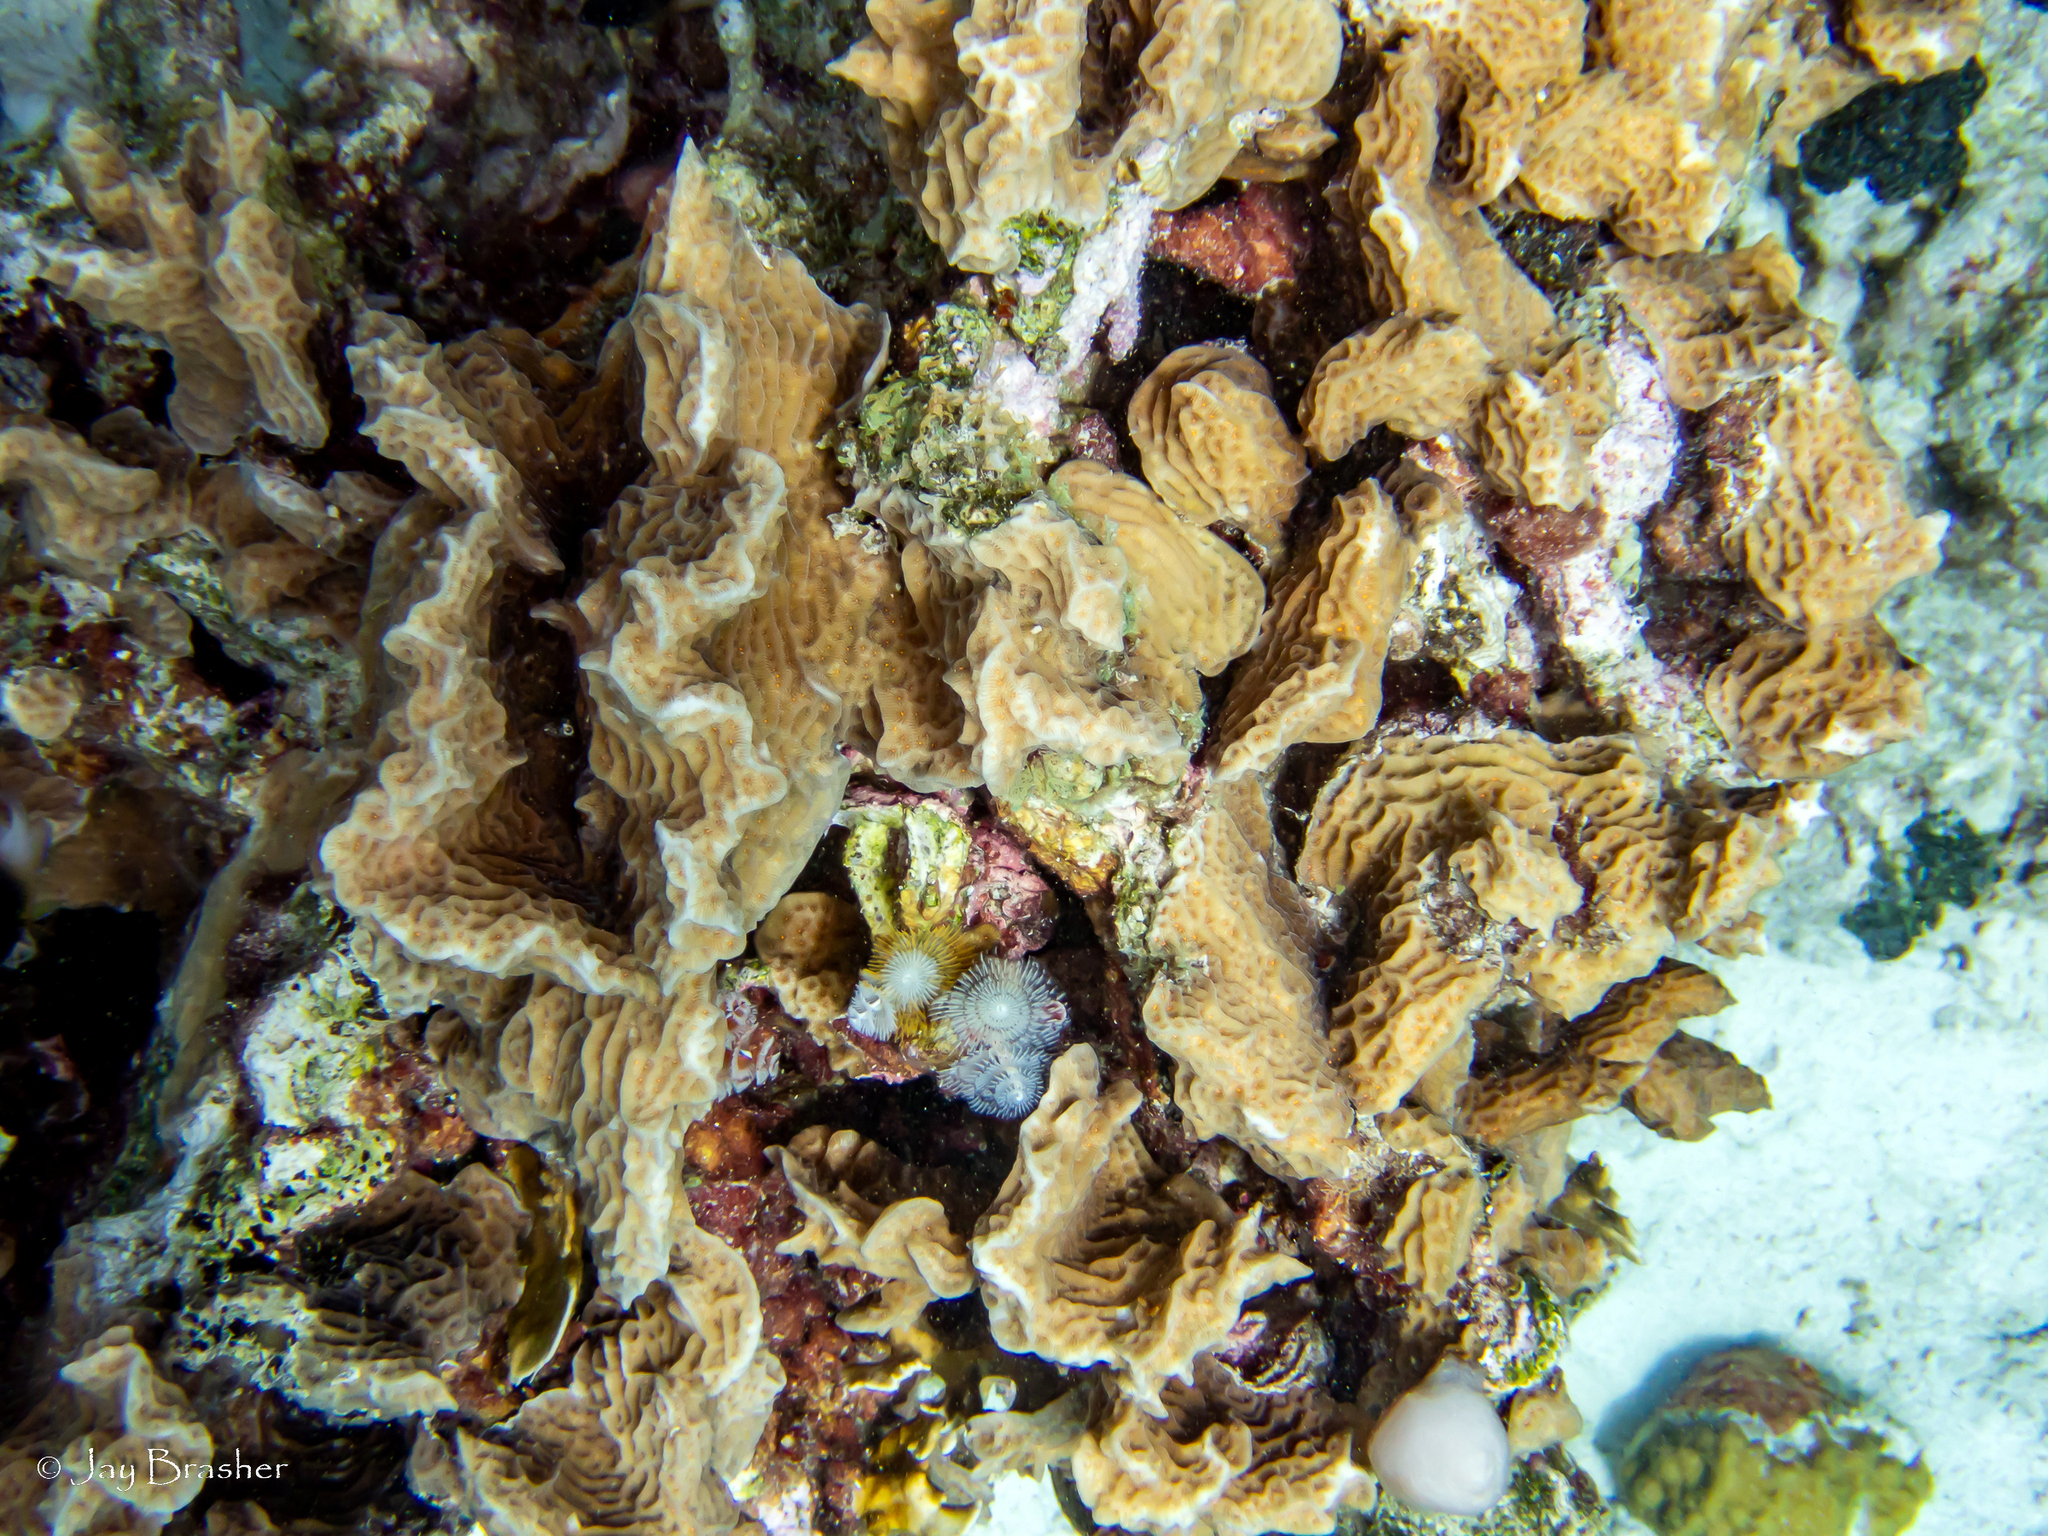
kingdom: Animalia
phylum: Cnidaria
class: Anthozoa
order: Scleractinia
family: Agariciidae
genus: Agaricia
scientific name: Agaricia agaricites
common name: Lettuce coral
